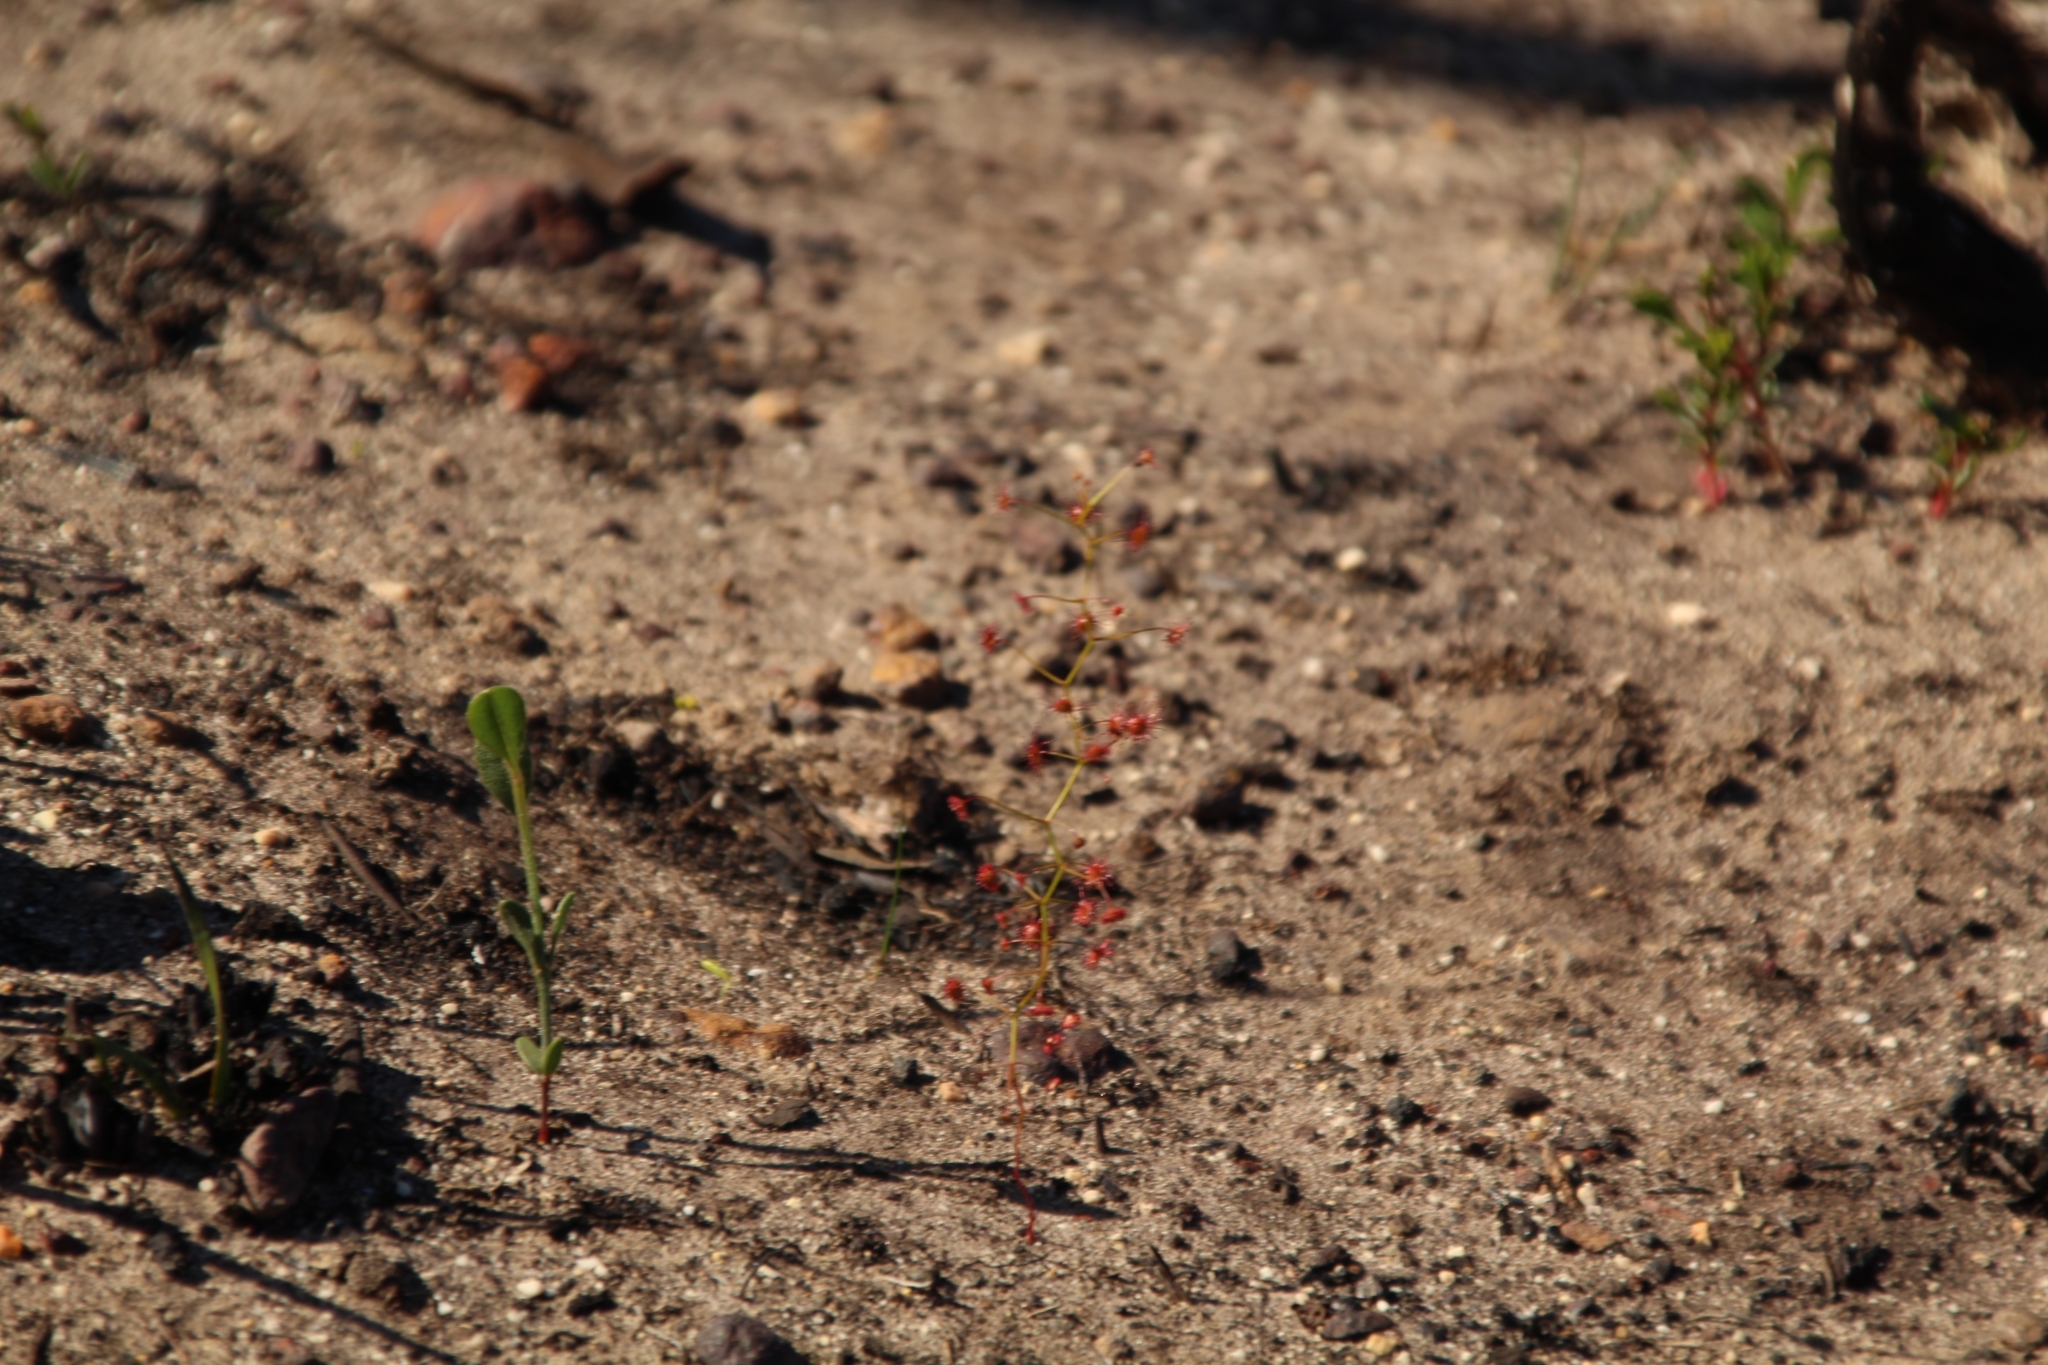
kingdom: Plantae
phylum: Tracheophyta
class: Magnoliopsida
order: Caryophyllales
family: Droseraceae
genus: Drosera
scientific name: Drosera pallida
